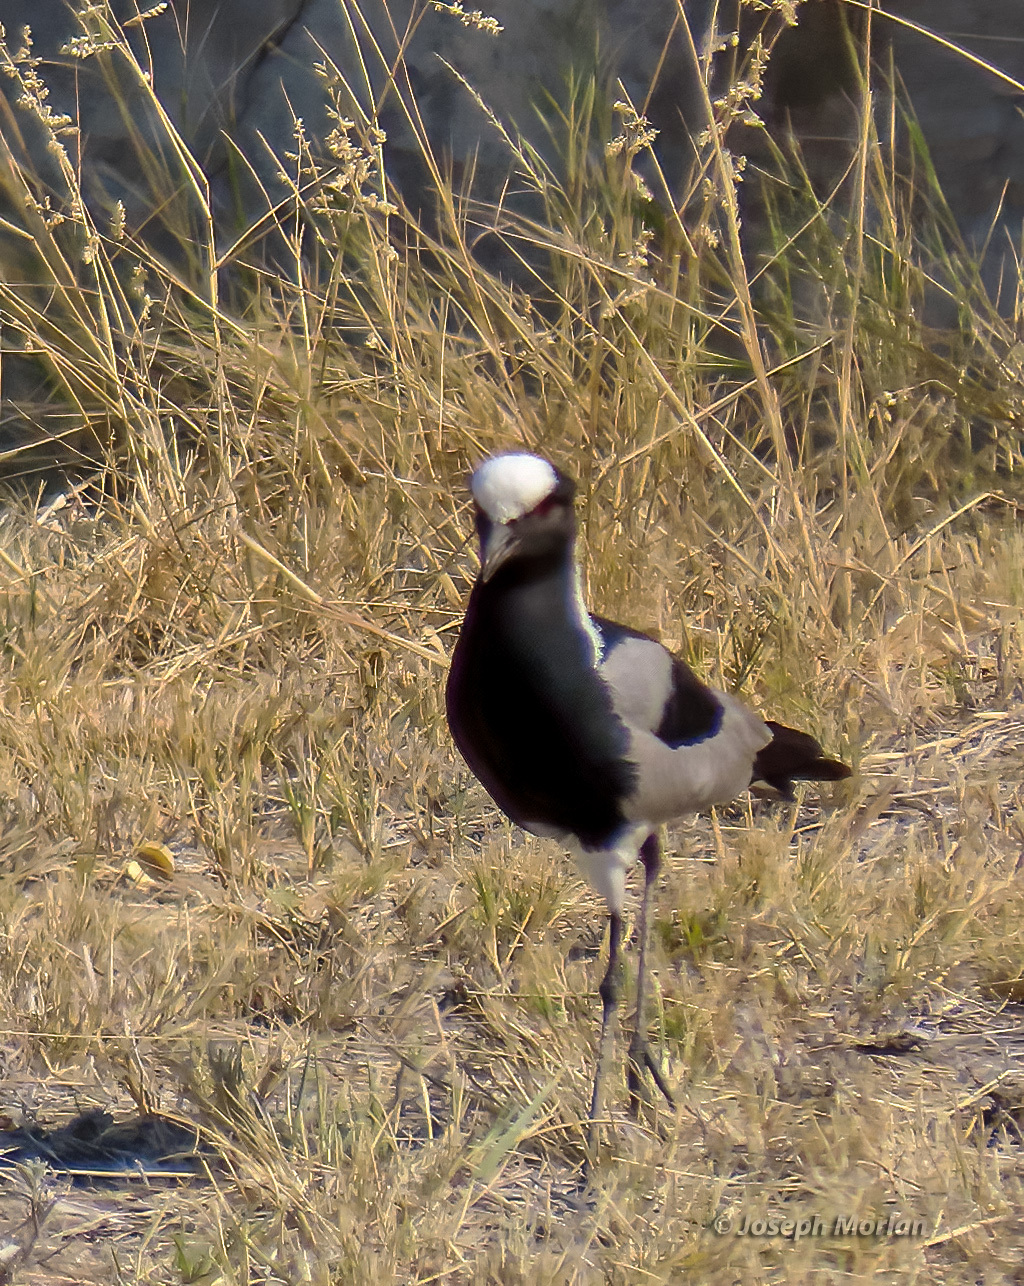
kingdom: Animalia
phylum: Chordata
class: Aves
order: Charadriiformes
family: Charadriidae
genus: Vanellus
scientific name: Vanellus armatus
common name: Blacksmith lapwing
